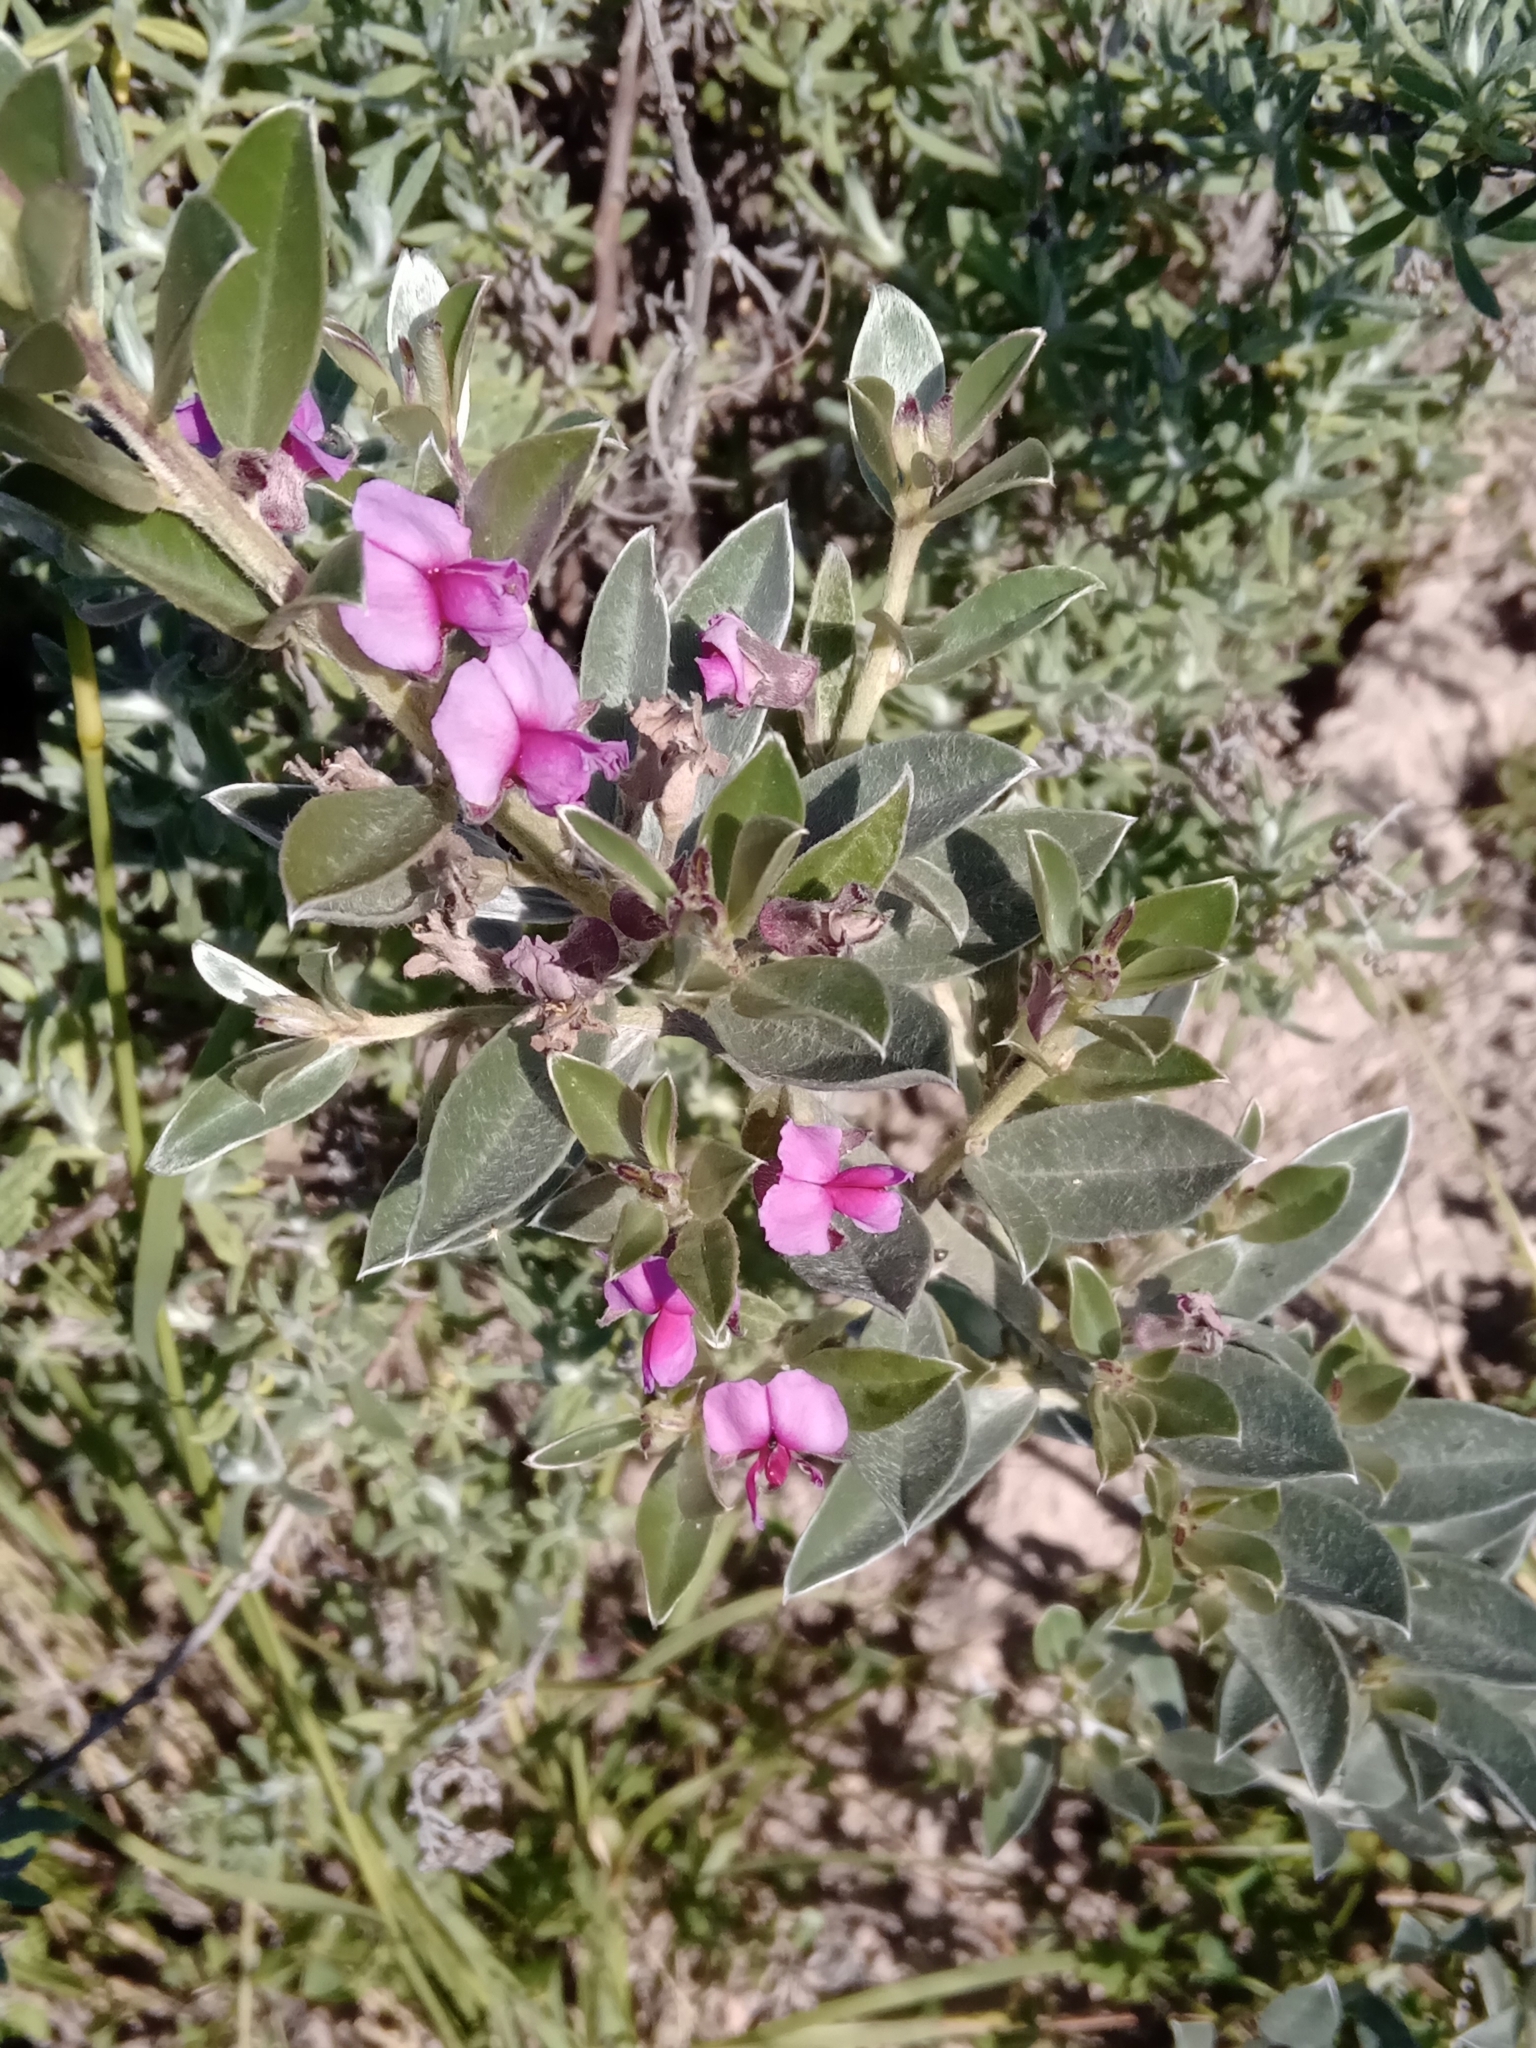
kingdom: Plantae
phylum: Tracheophyta
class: Magnoliopsida
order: Fabales
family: Fabaceae
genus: Podalyria
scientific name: Podalyria sericea
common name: Silver podalyria
